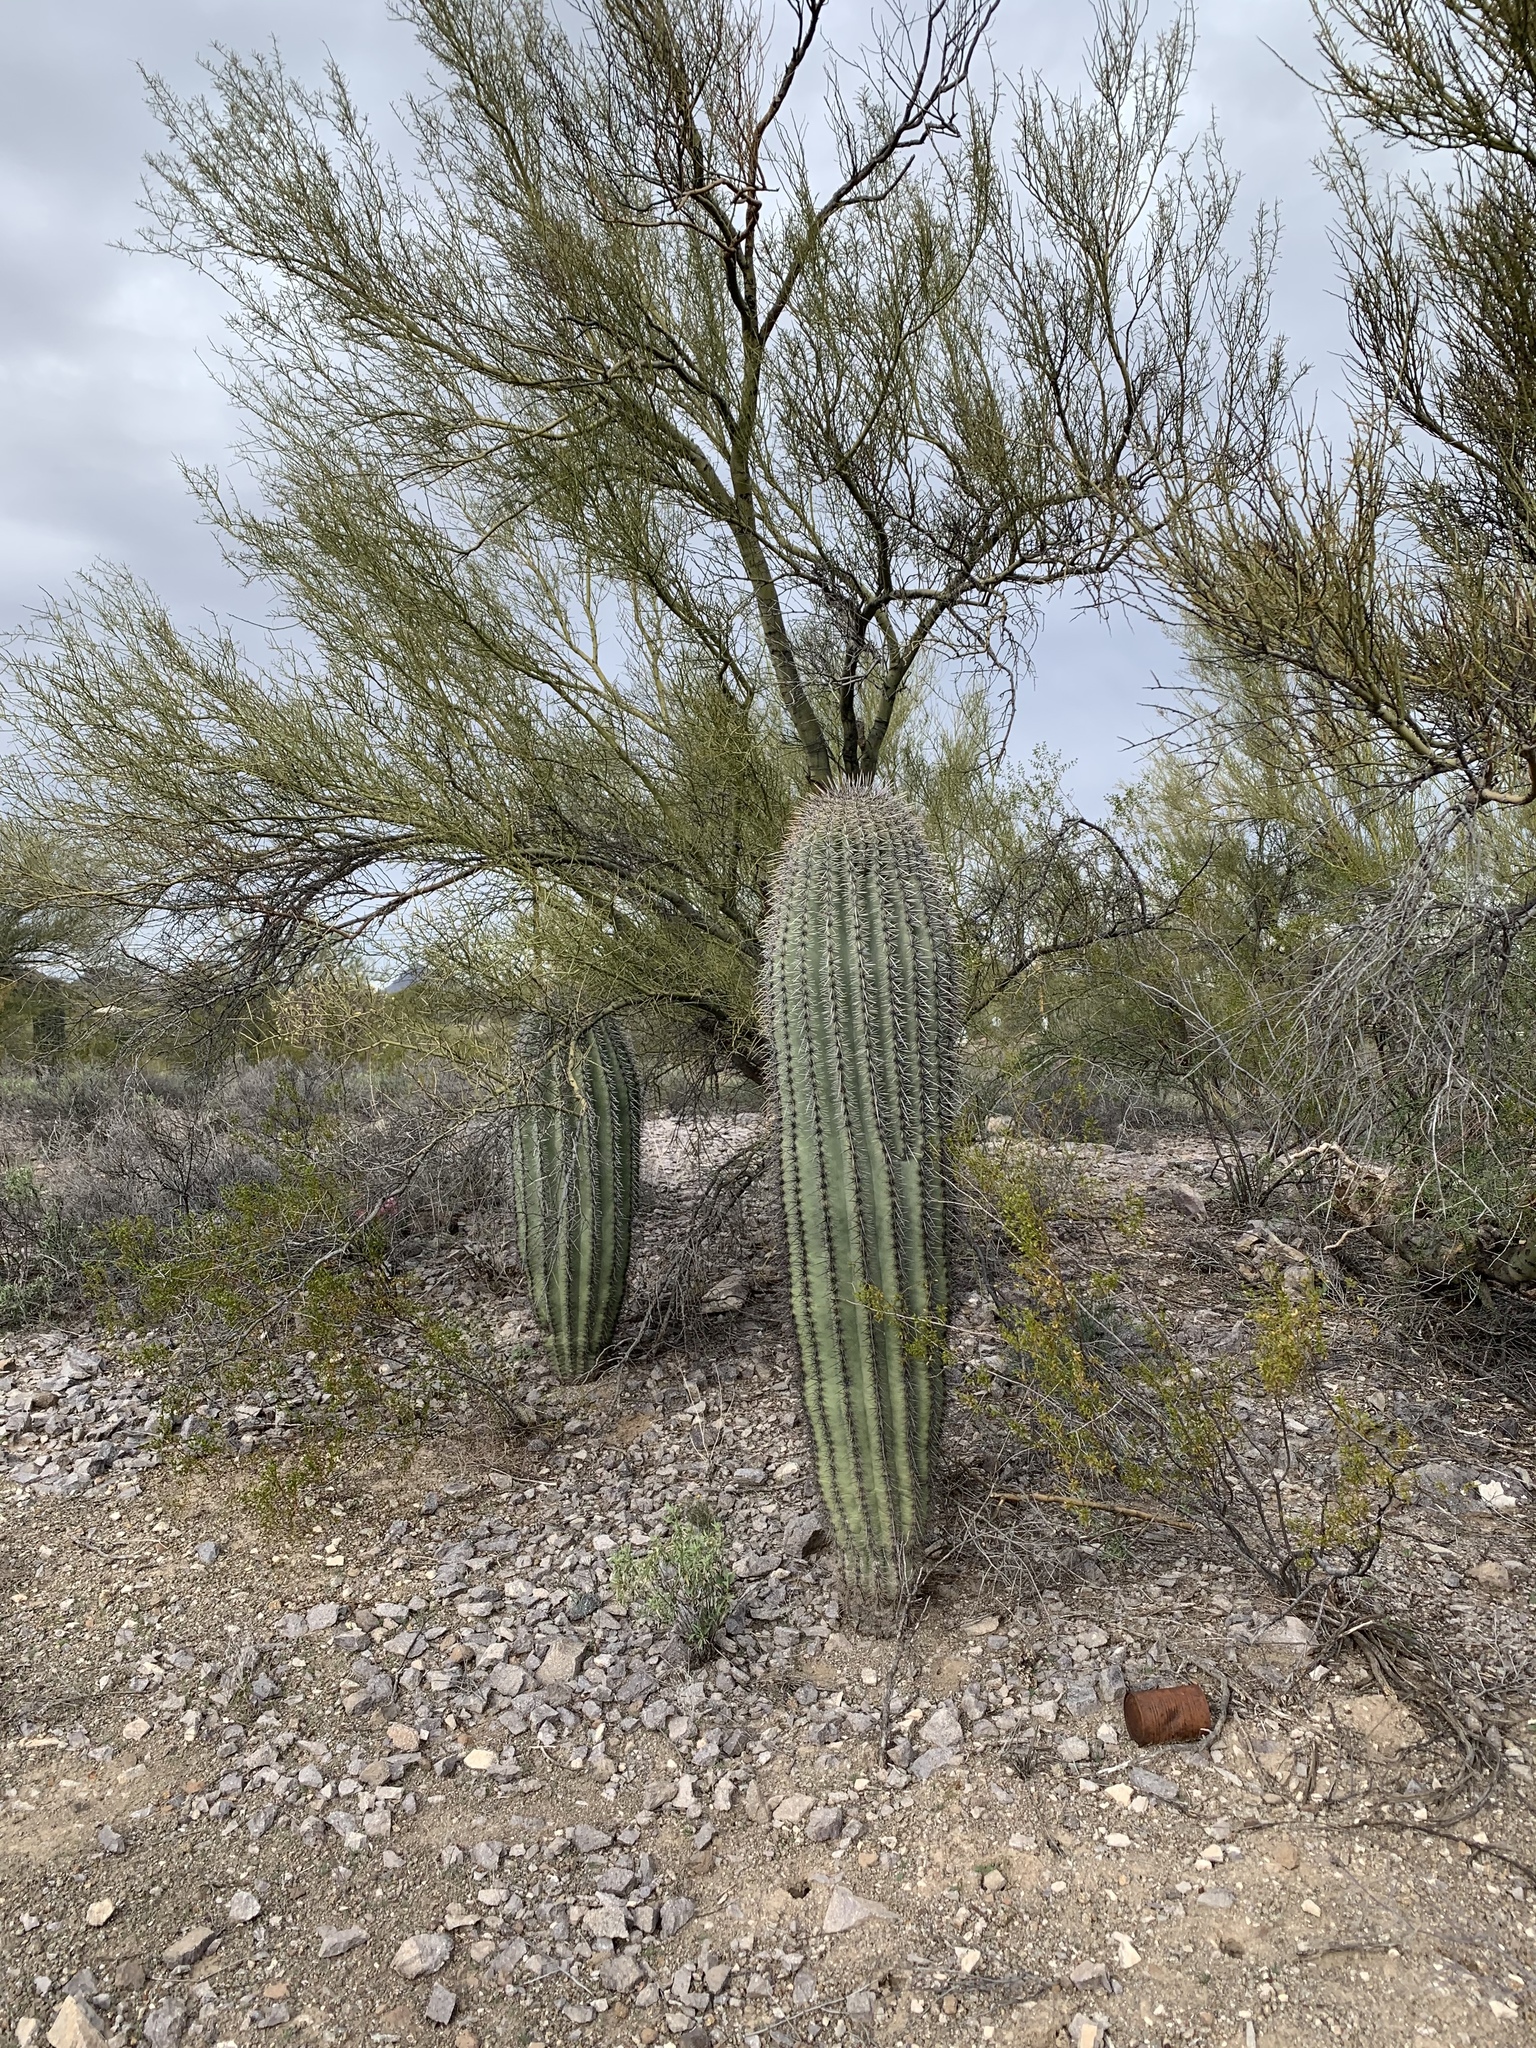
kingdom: Plantae
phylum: Tracheophyta
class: Magnoliopsida
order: Caryophyllales
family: Cactaceae
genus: Carnegiea
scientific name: Carnegiea gigantea
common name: Saguaro
